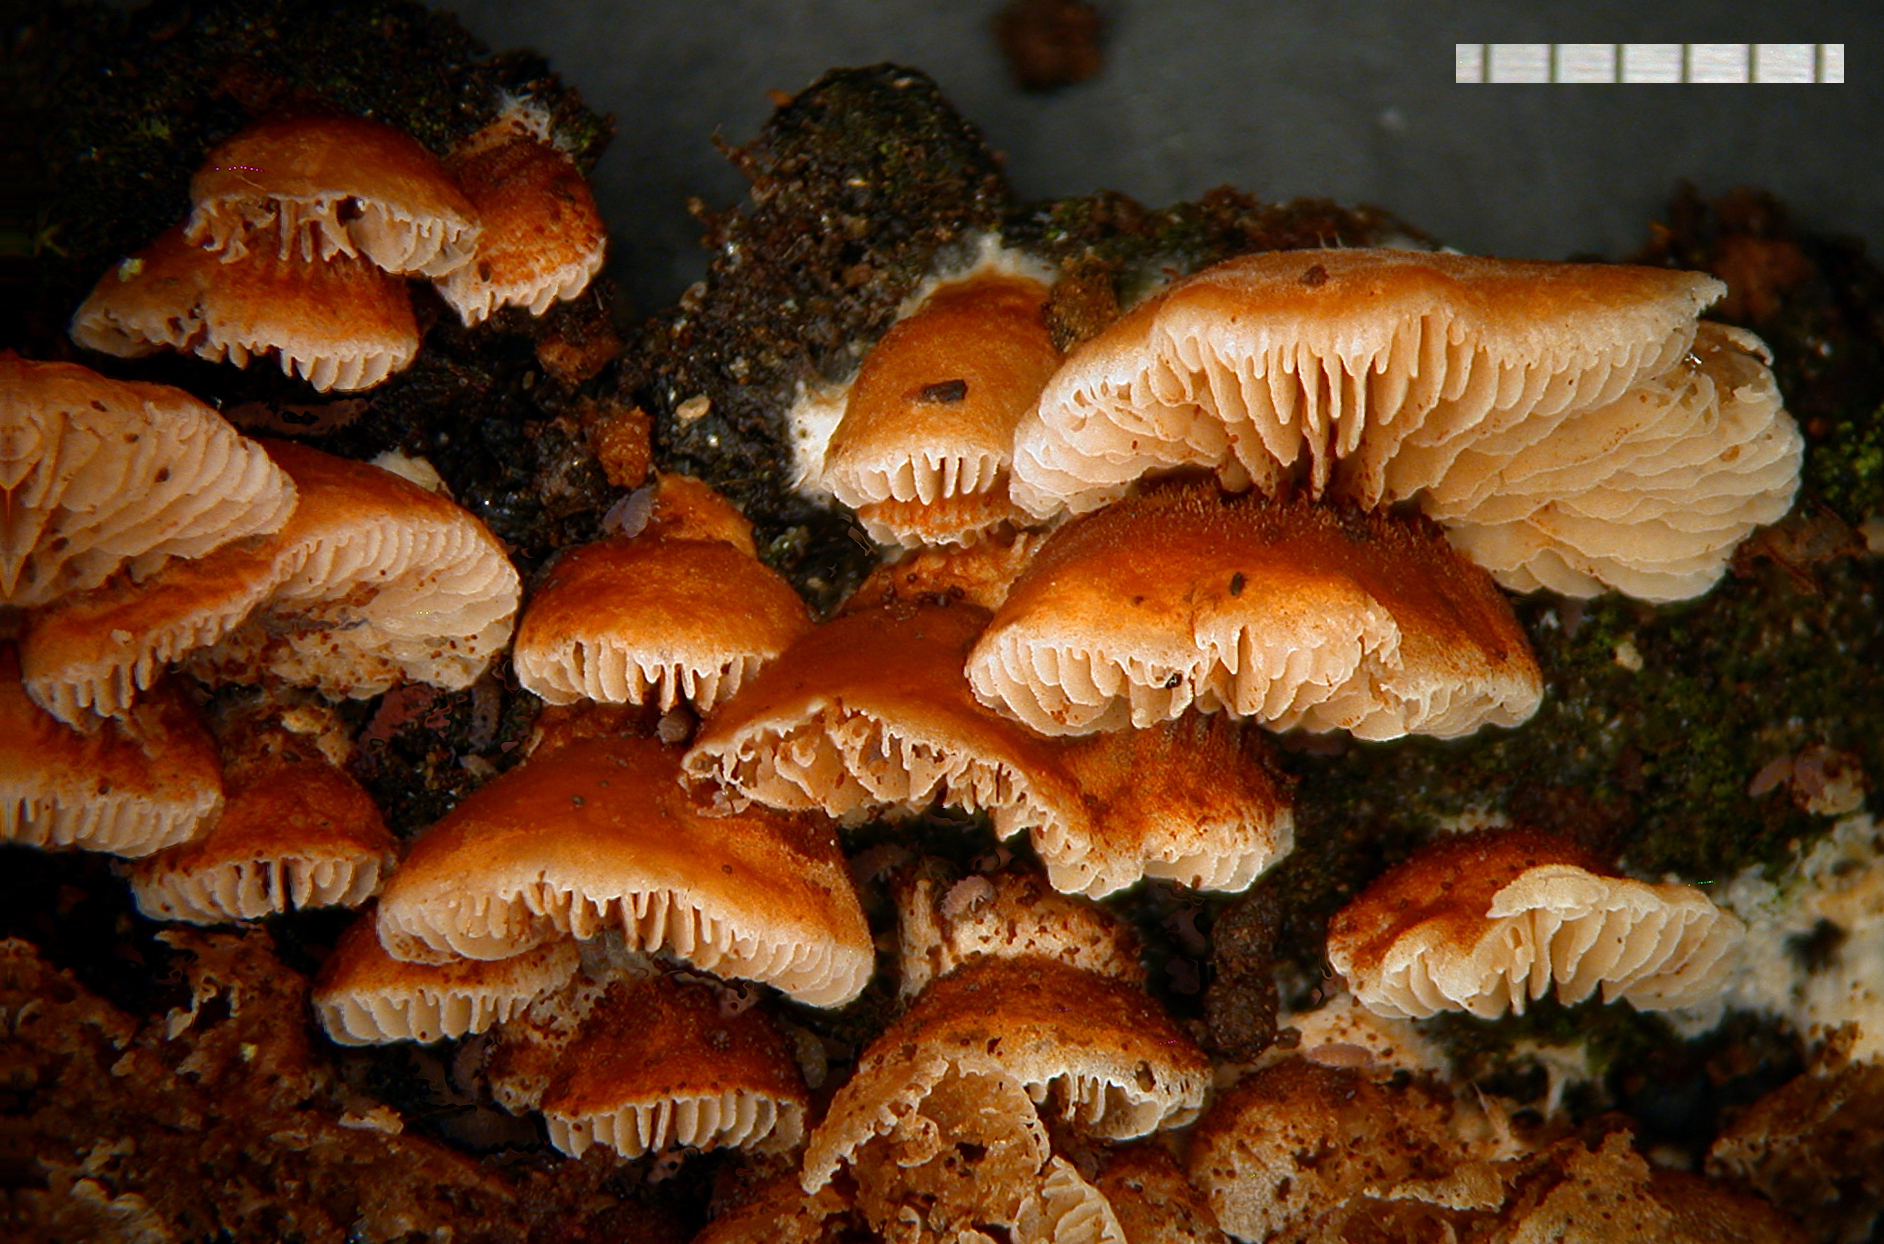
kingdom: Fungi
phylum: Basidiomycota
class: Agaricomycetes
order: Agaricales
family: Crepidotaceae
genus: Crepidotus
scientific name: Crepidotus nanicus
